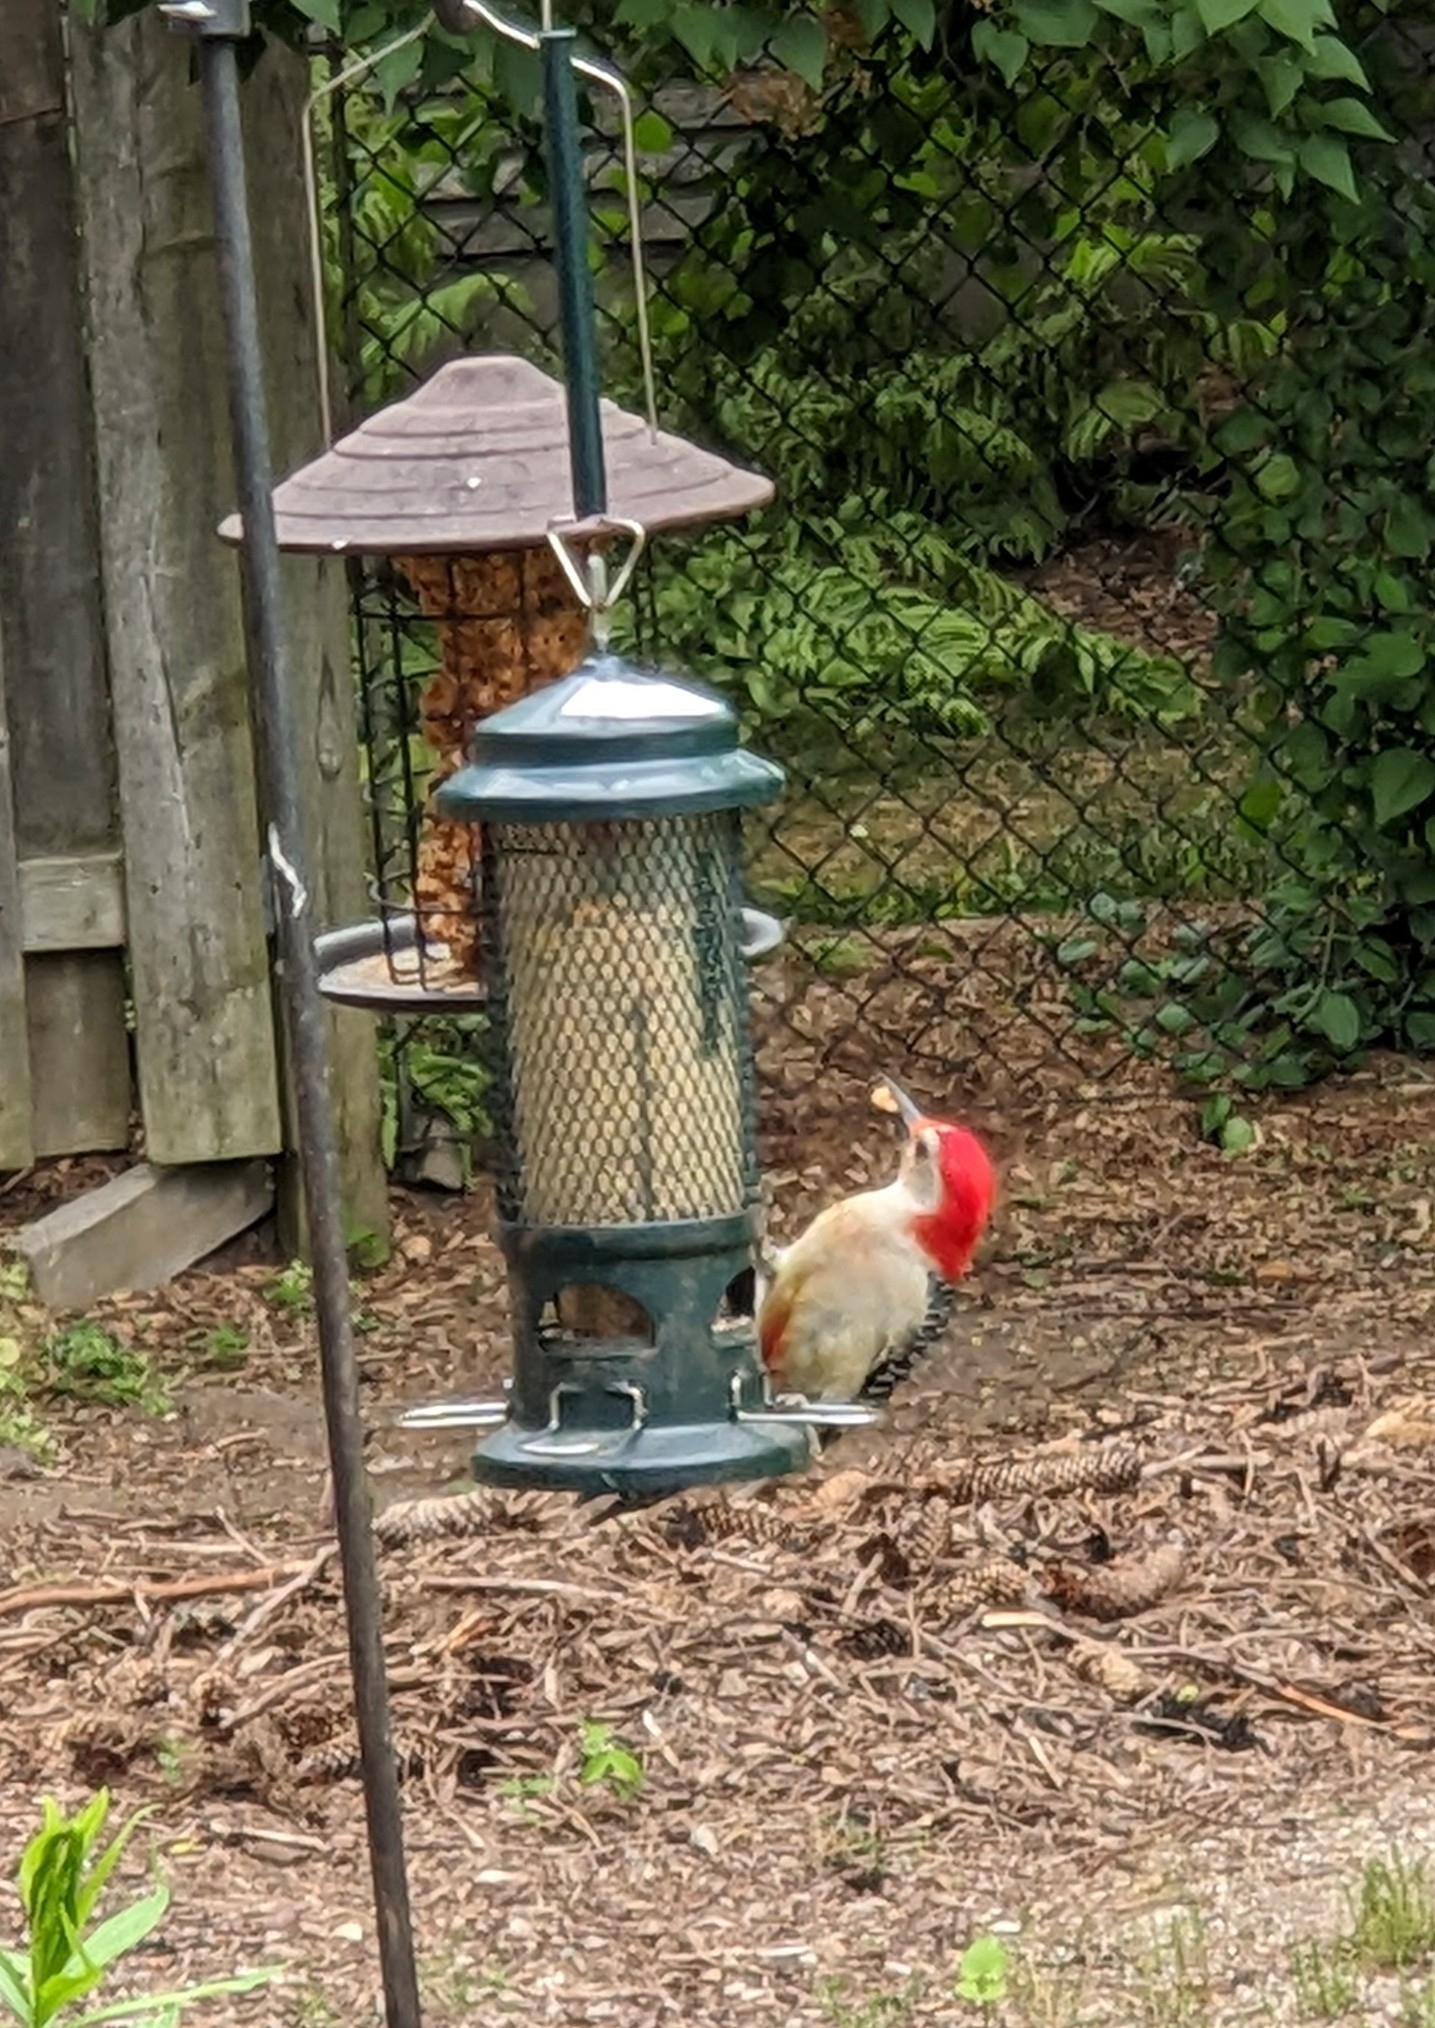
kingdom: Animalia
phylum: Chordata
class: Aves
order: Piciformes
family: Picidae
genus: Melanerpes
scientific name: Melanerpes carolinus
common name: Red-bellied woodpecker
